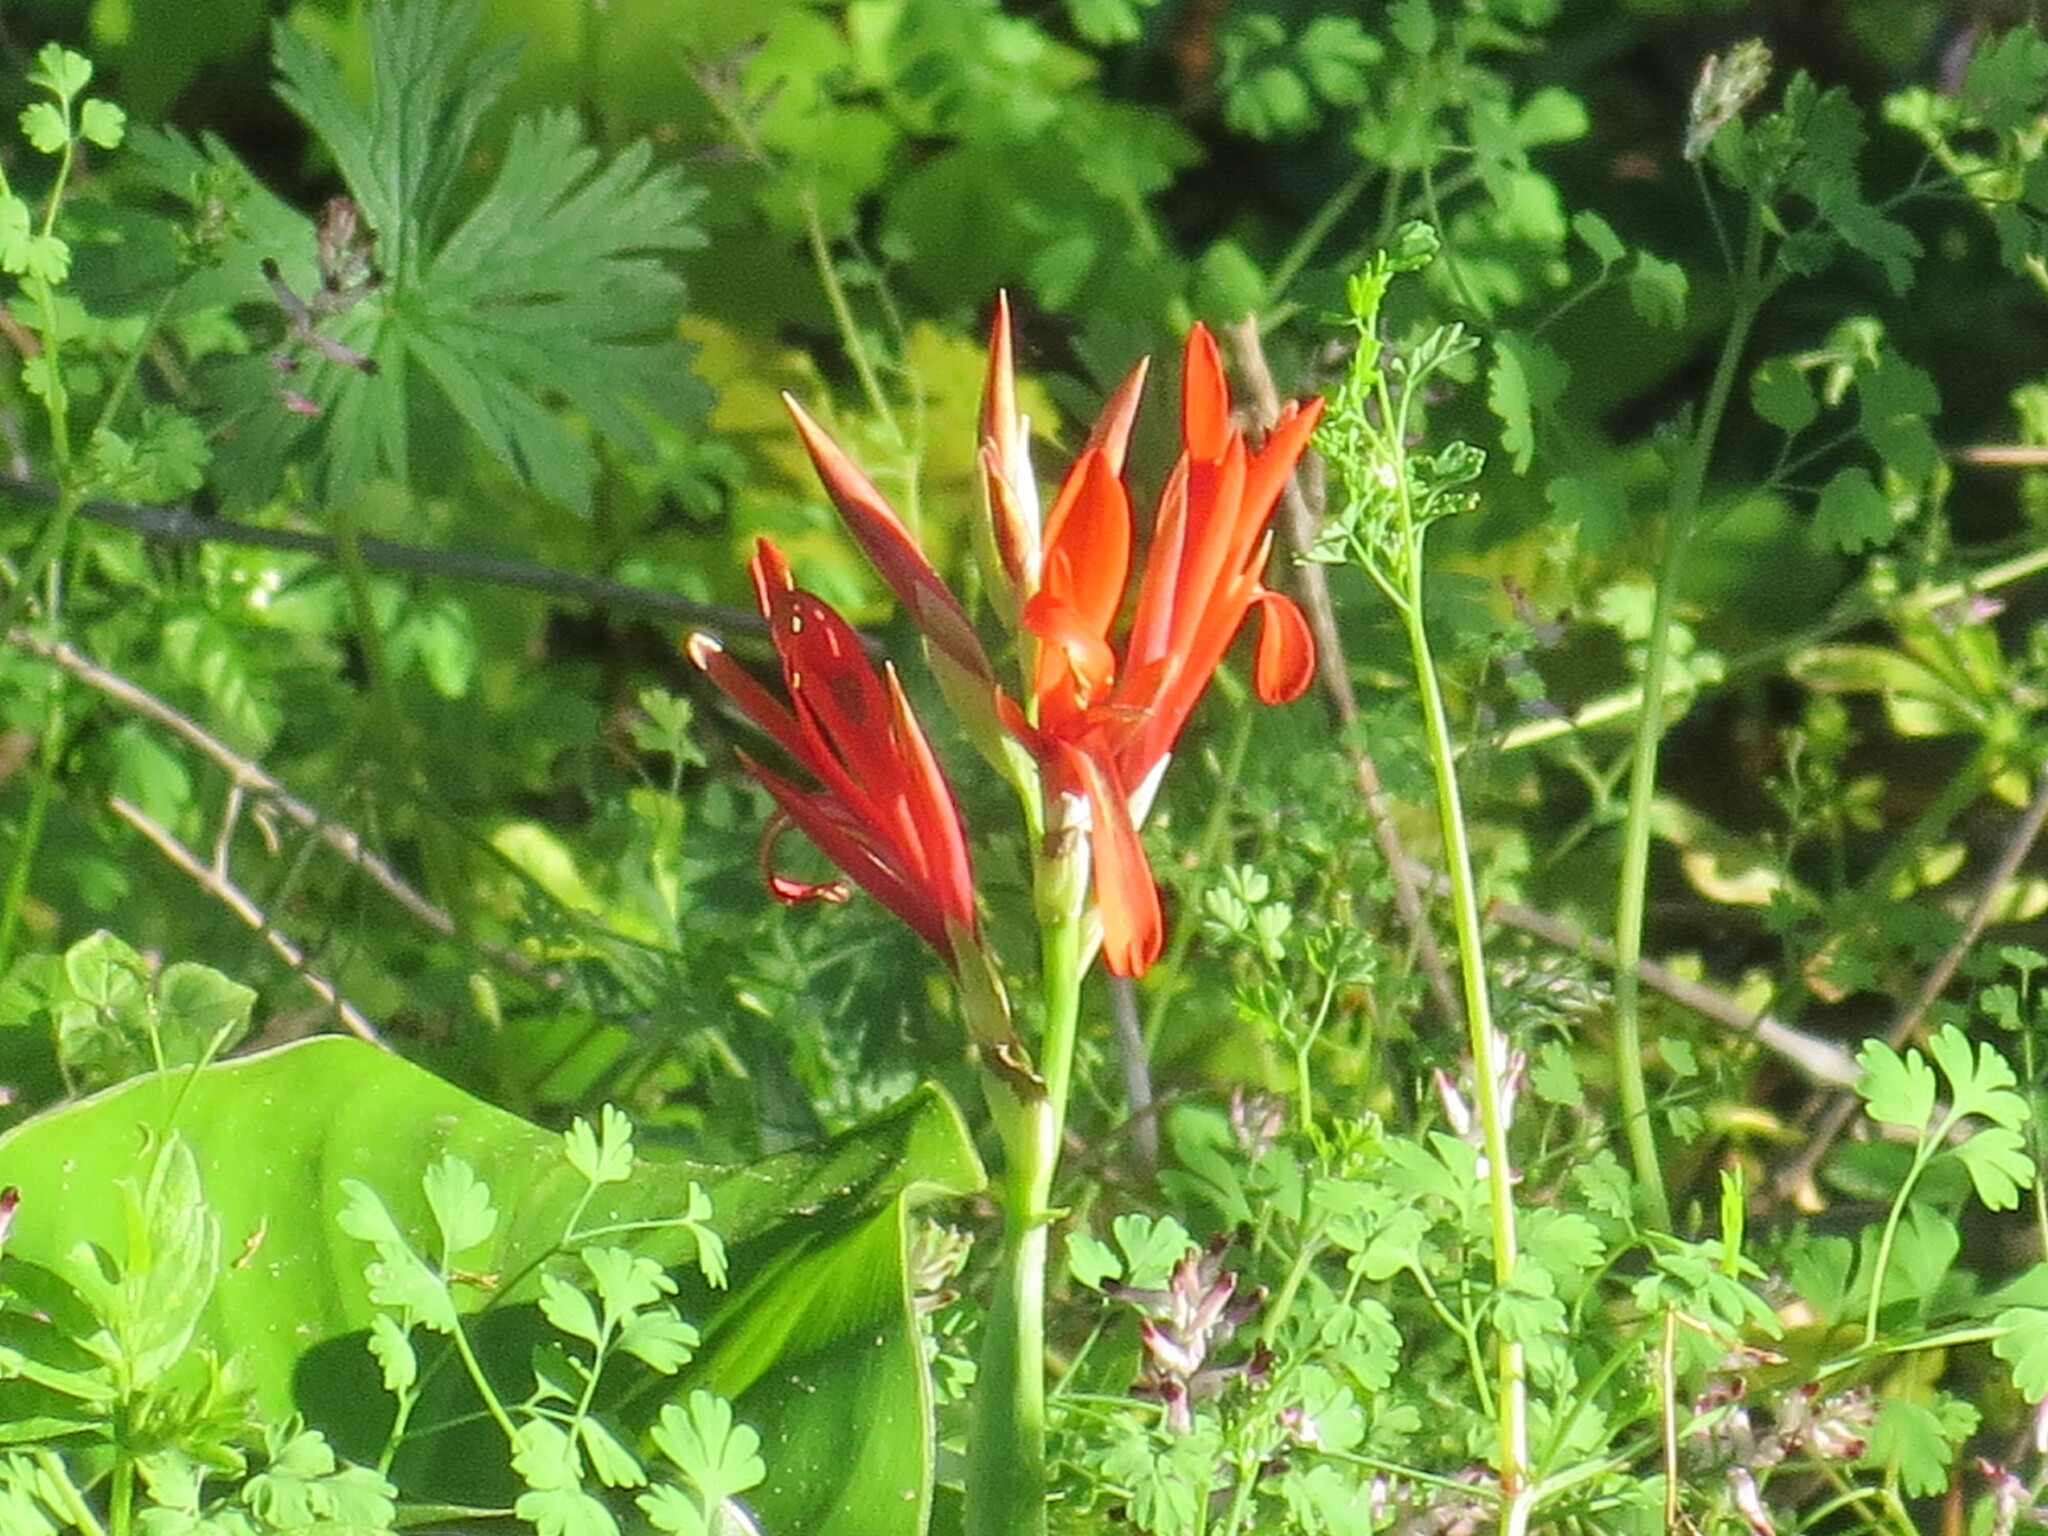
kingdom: Plantae
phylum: Tracheophyta
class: Liliopsida
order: Zingiberales
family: Cannaceae
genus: Canna
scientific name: Canna indica
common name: Indian shot
